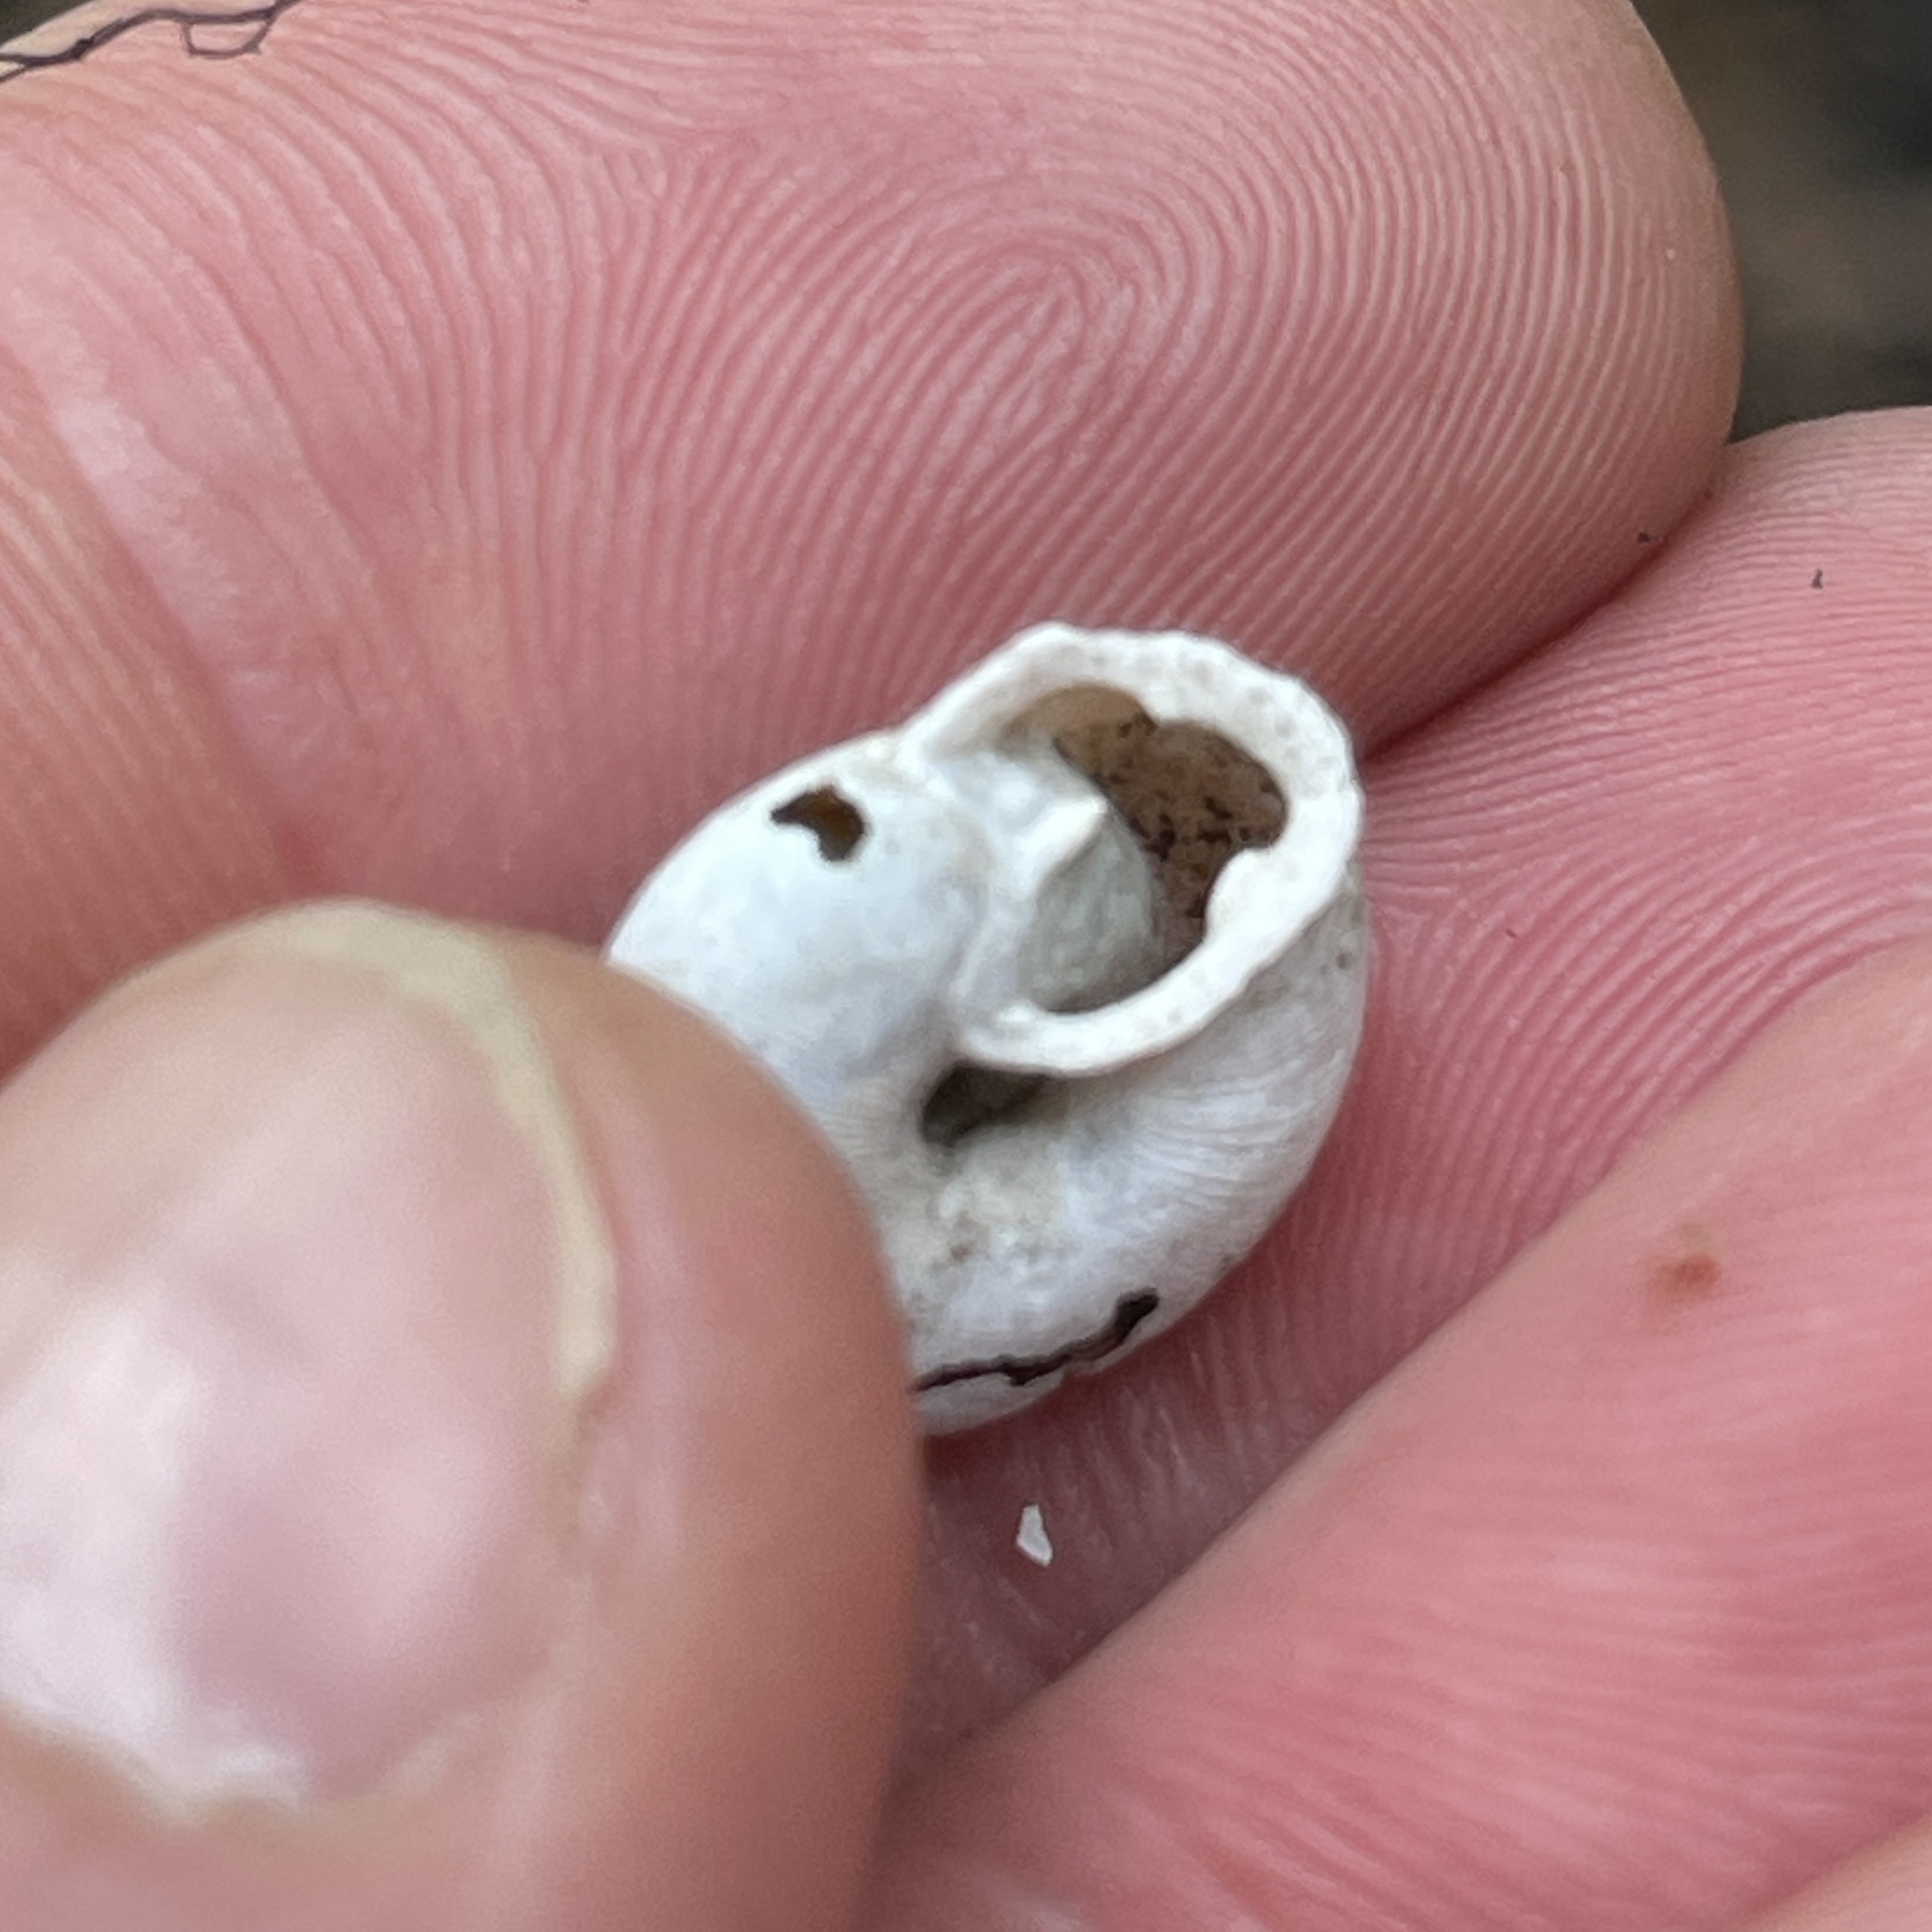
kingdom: Animalia
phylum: Mollusca
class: Gastropoda
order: Stylommatophora
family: Polygyridae
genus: Triodopsis
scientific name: Triodopsis tridentata
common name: Northern threetooth
